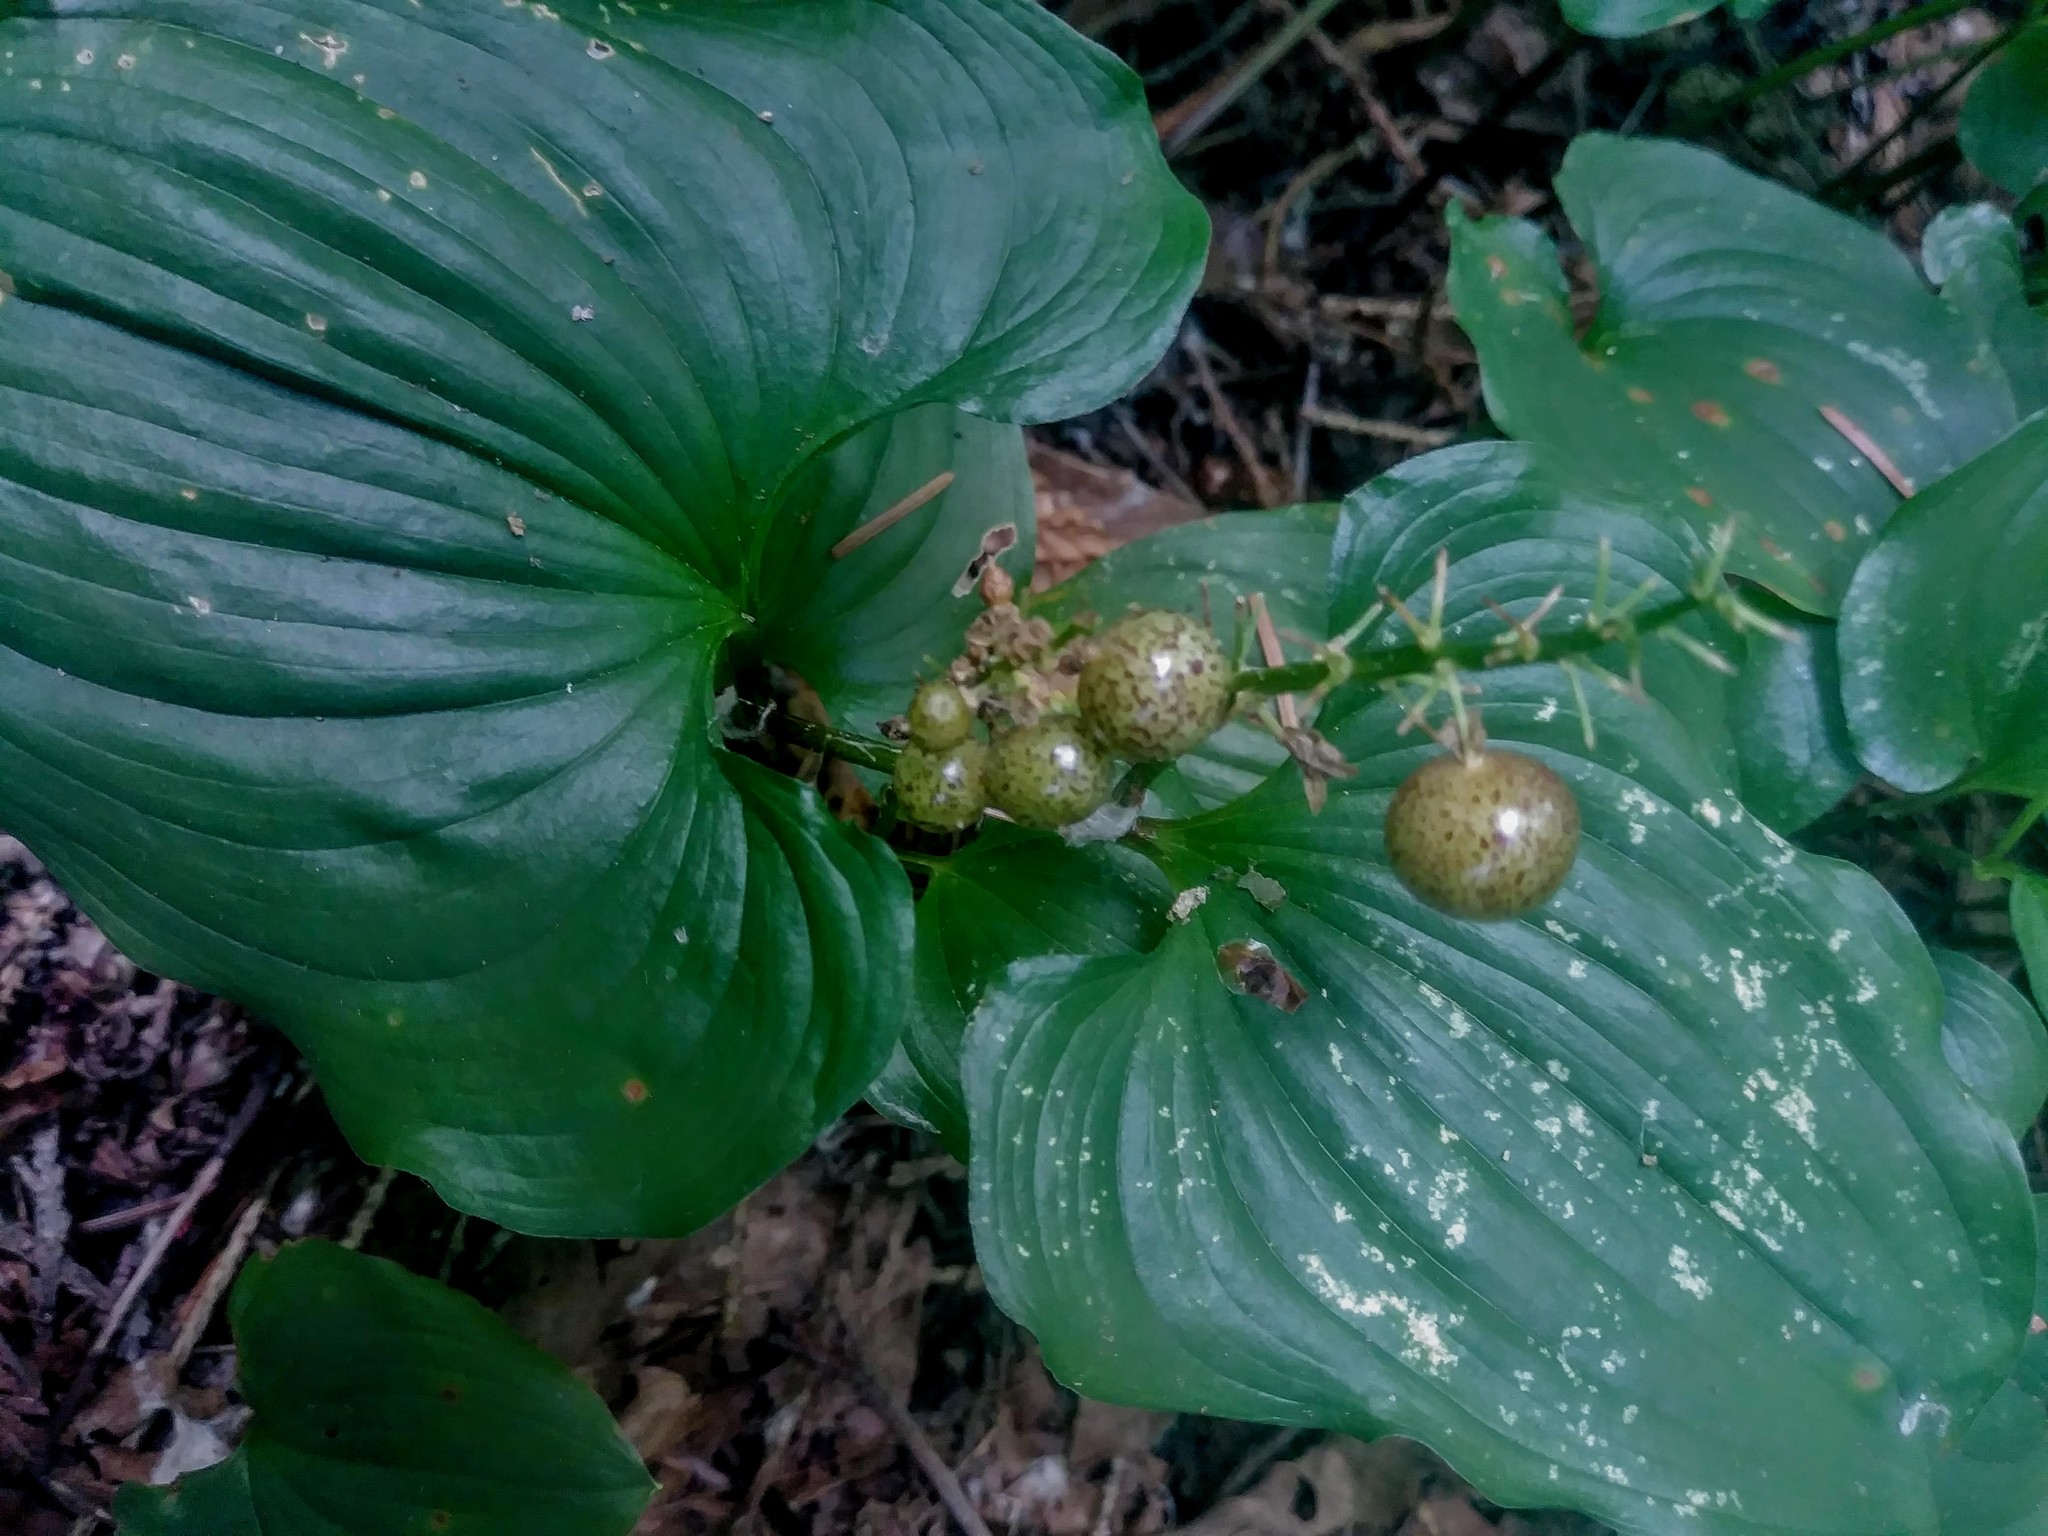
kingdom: Plantae
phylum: Tracheophyta
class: Liliopsida
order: Asparagales
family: Asparagaceae
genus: Maianthemum
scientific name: Maianthemum dilatatum
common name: False lily-of-the-valley
